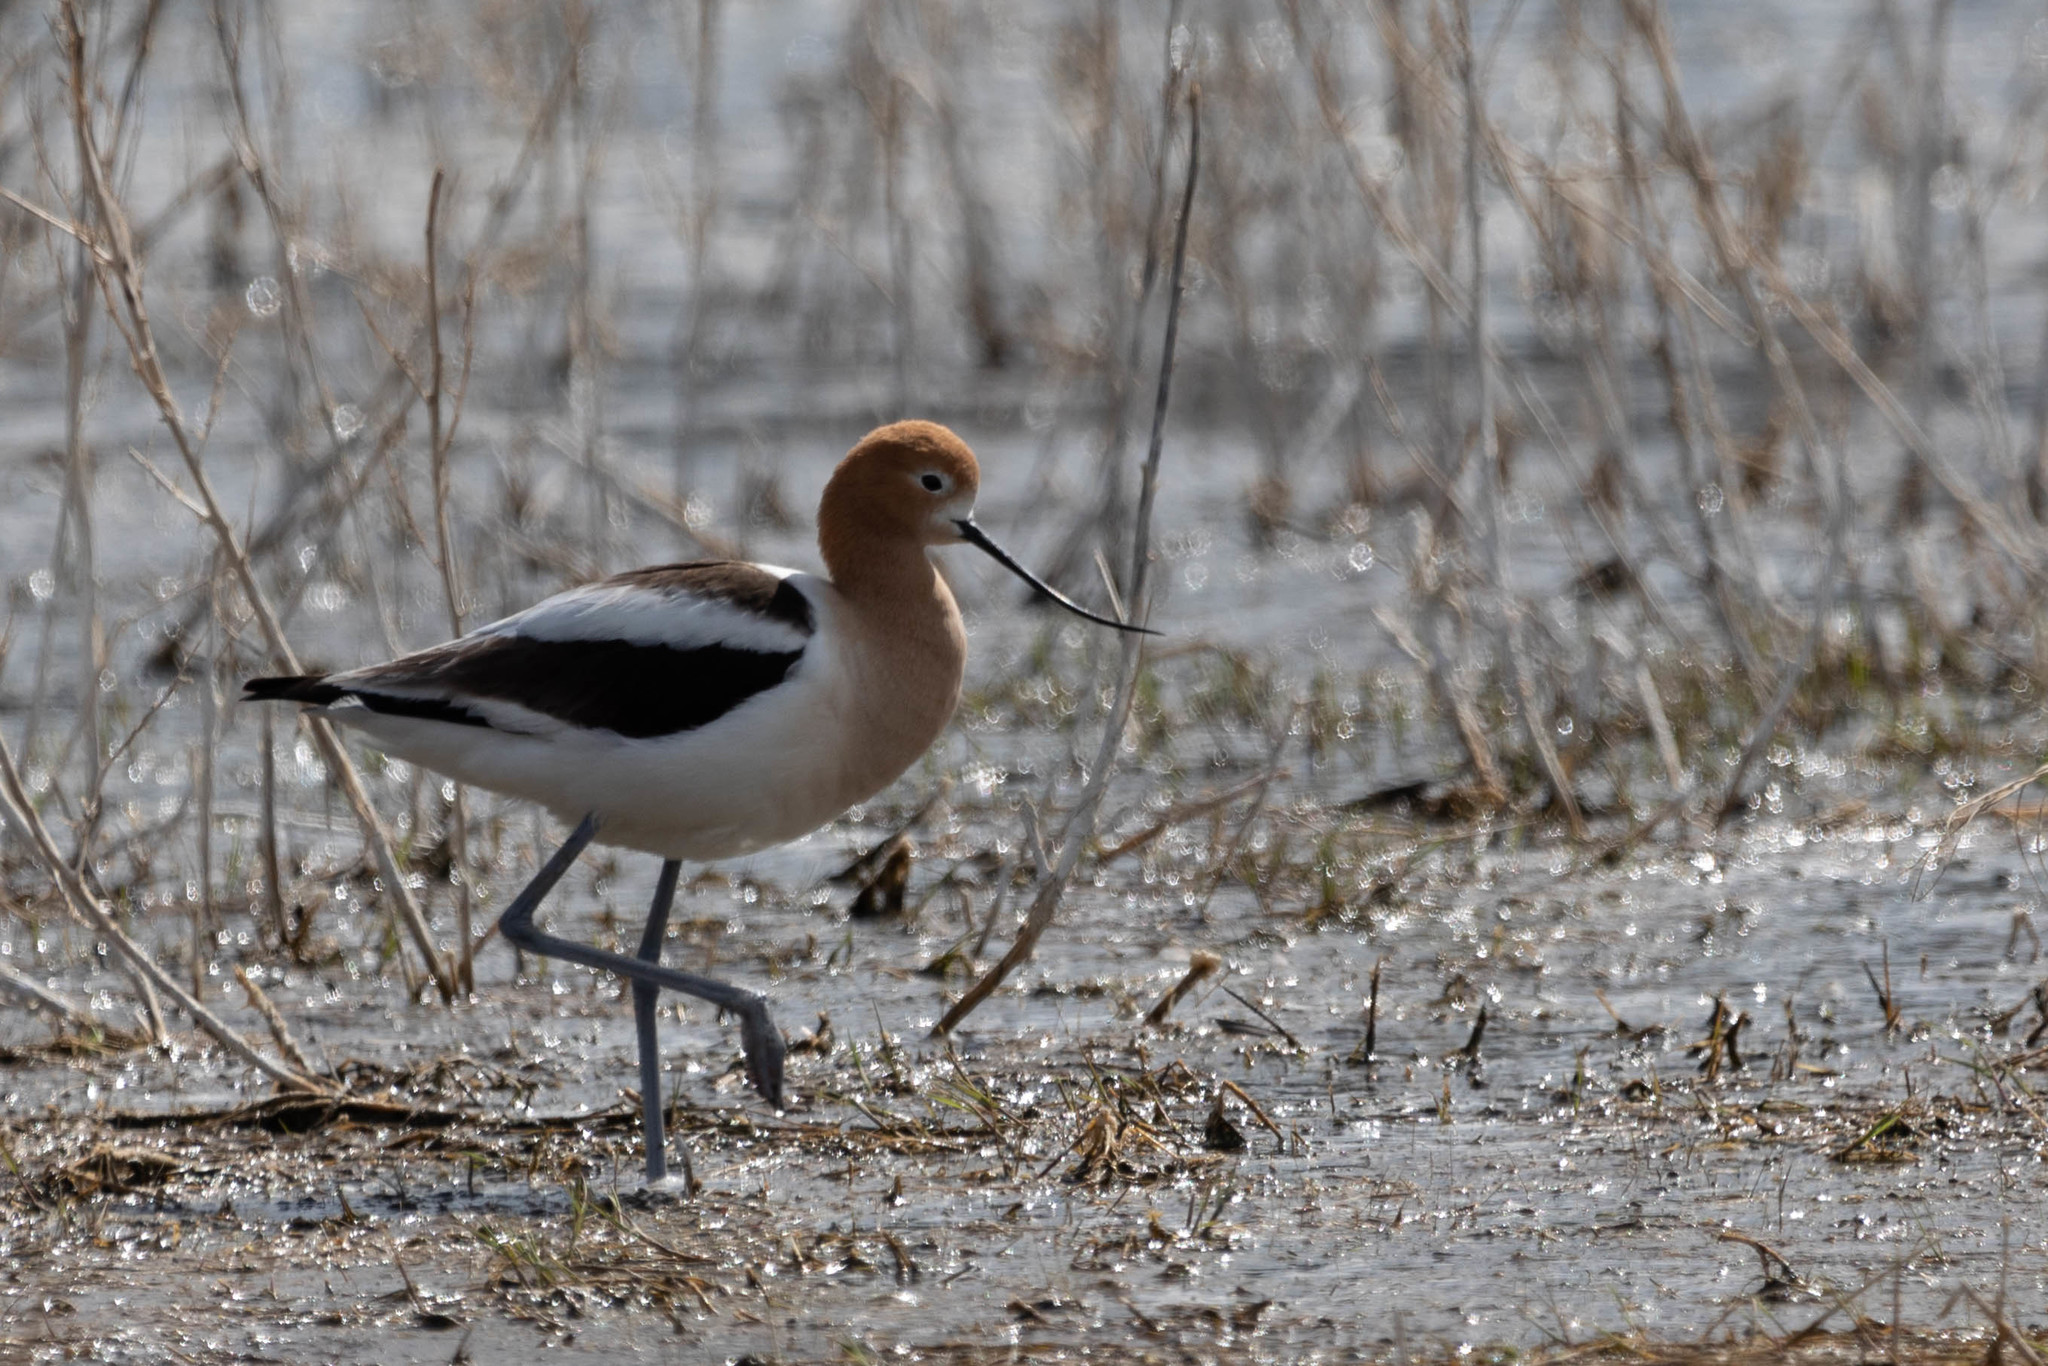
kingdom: Animalia
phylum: Chordata
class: Aves
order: Charadriiformes
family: Recurvirostridae
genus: Recurvirostra
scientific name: Recurvirostra americana
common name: American avocet
